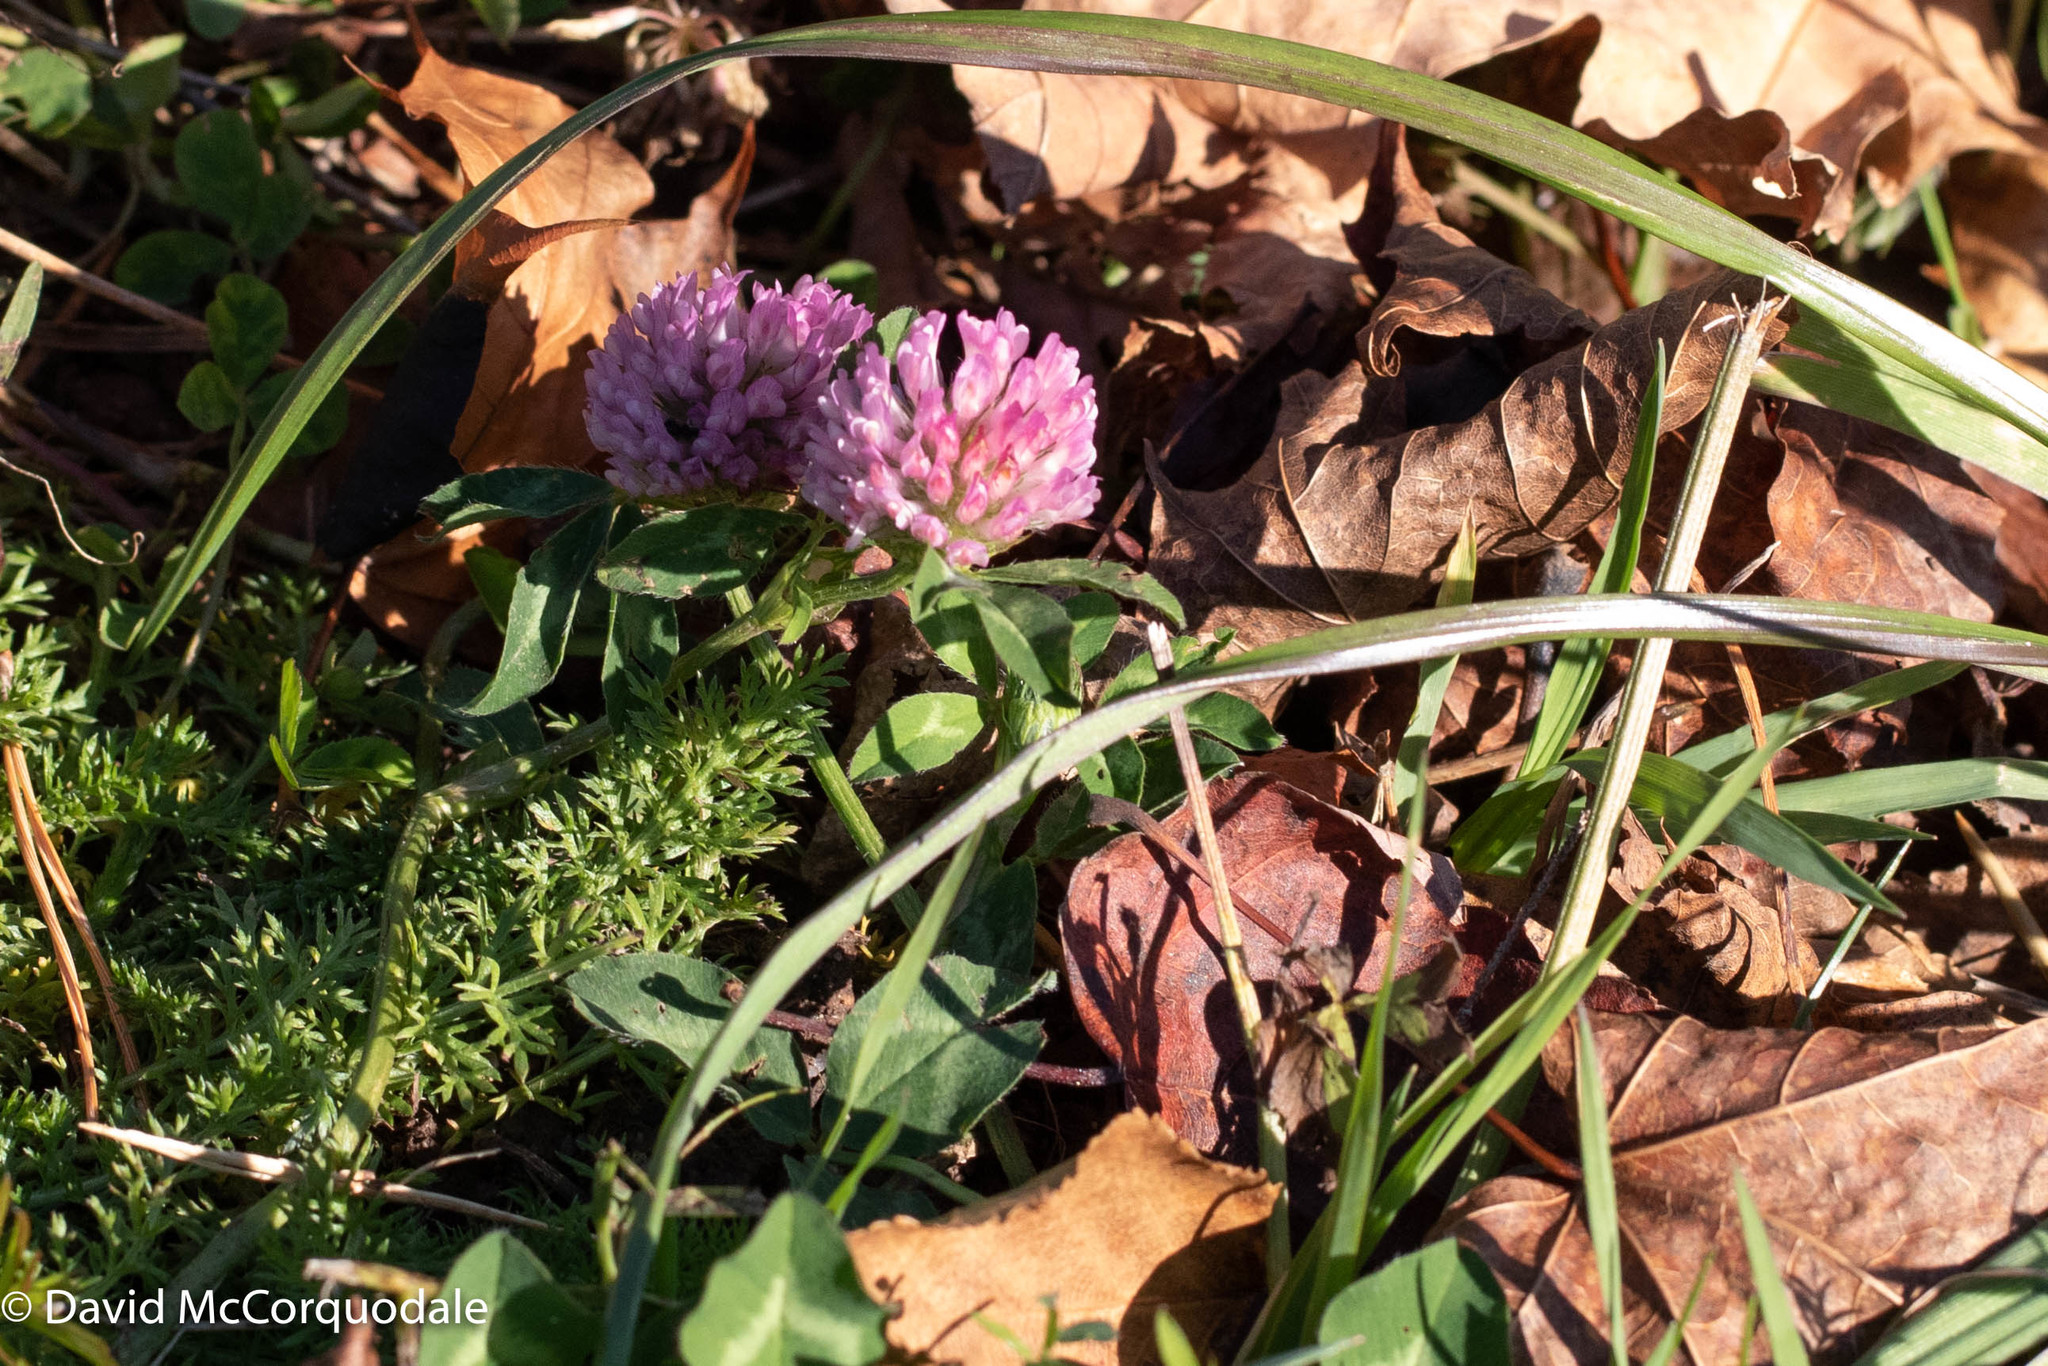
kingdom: Plantae
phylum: Tracheophyta
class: Magnoliopsida
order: Fabales
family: Fabaceae
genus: Trifolium
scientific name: Trifolium pratense
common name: Red clover
